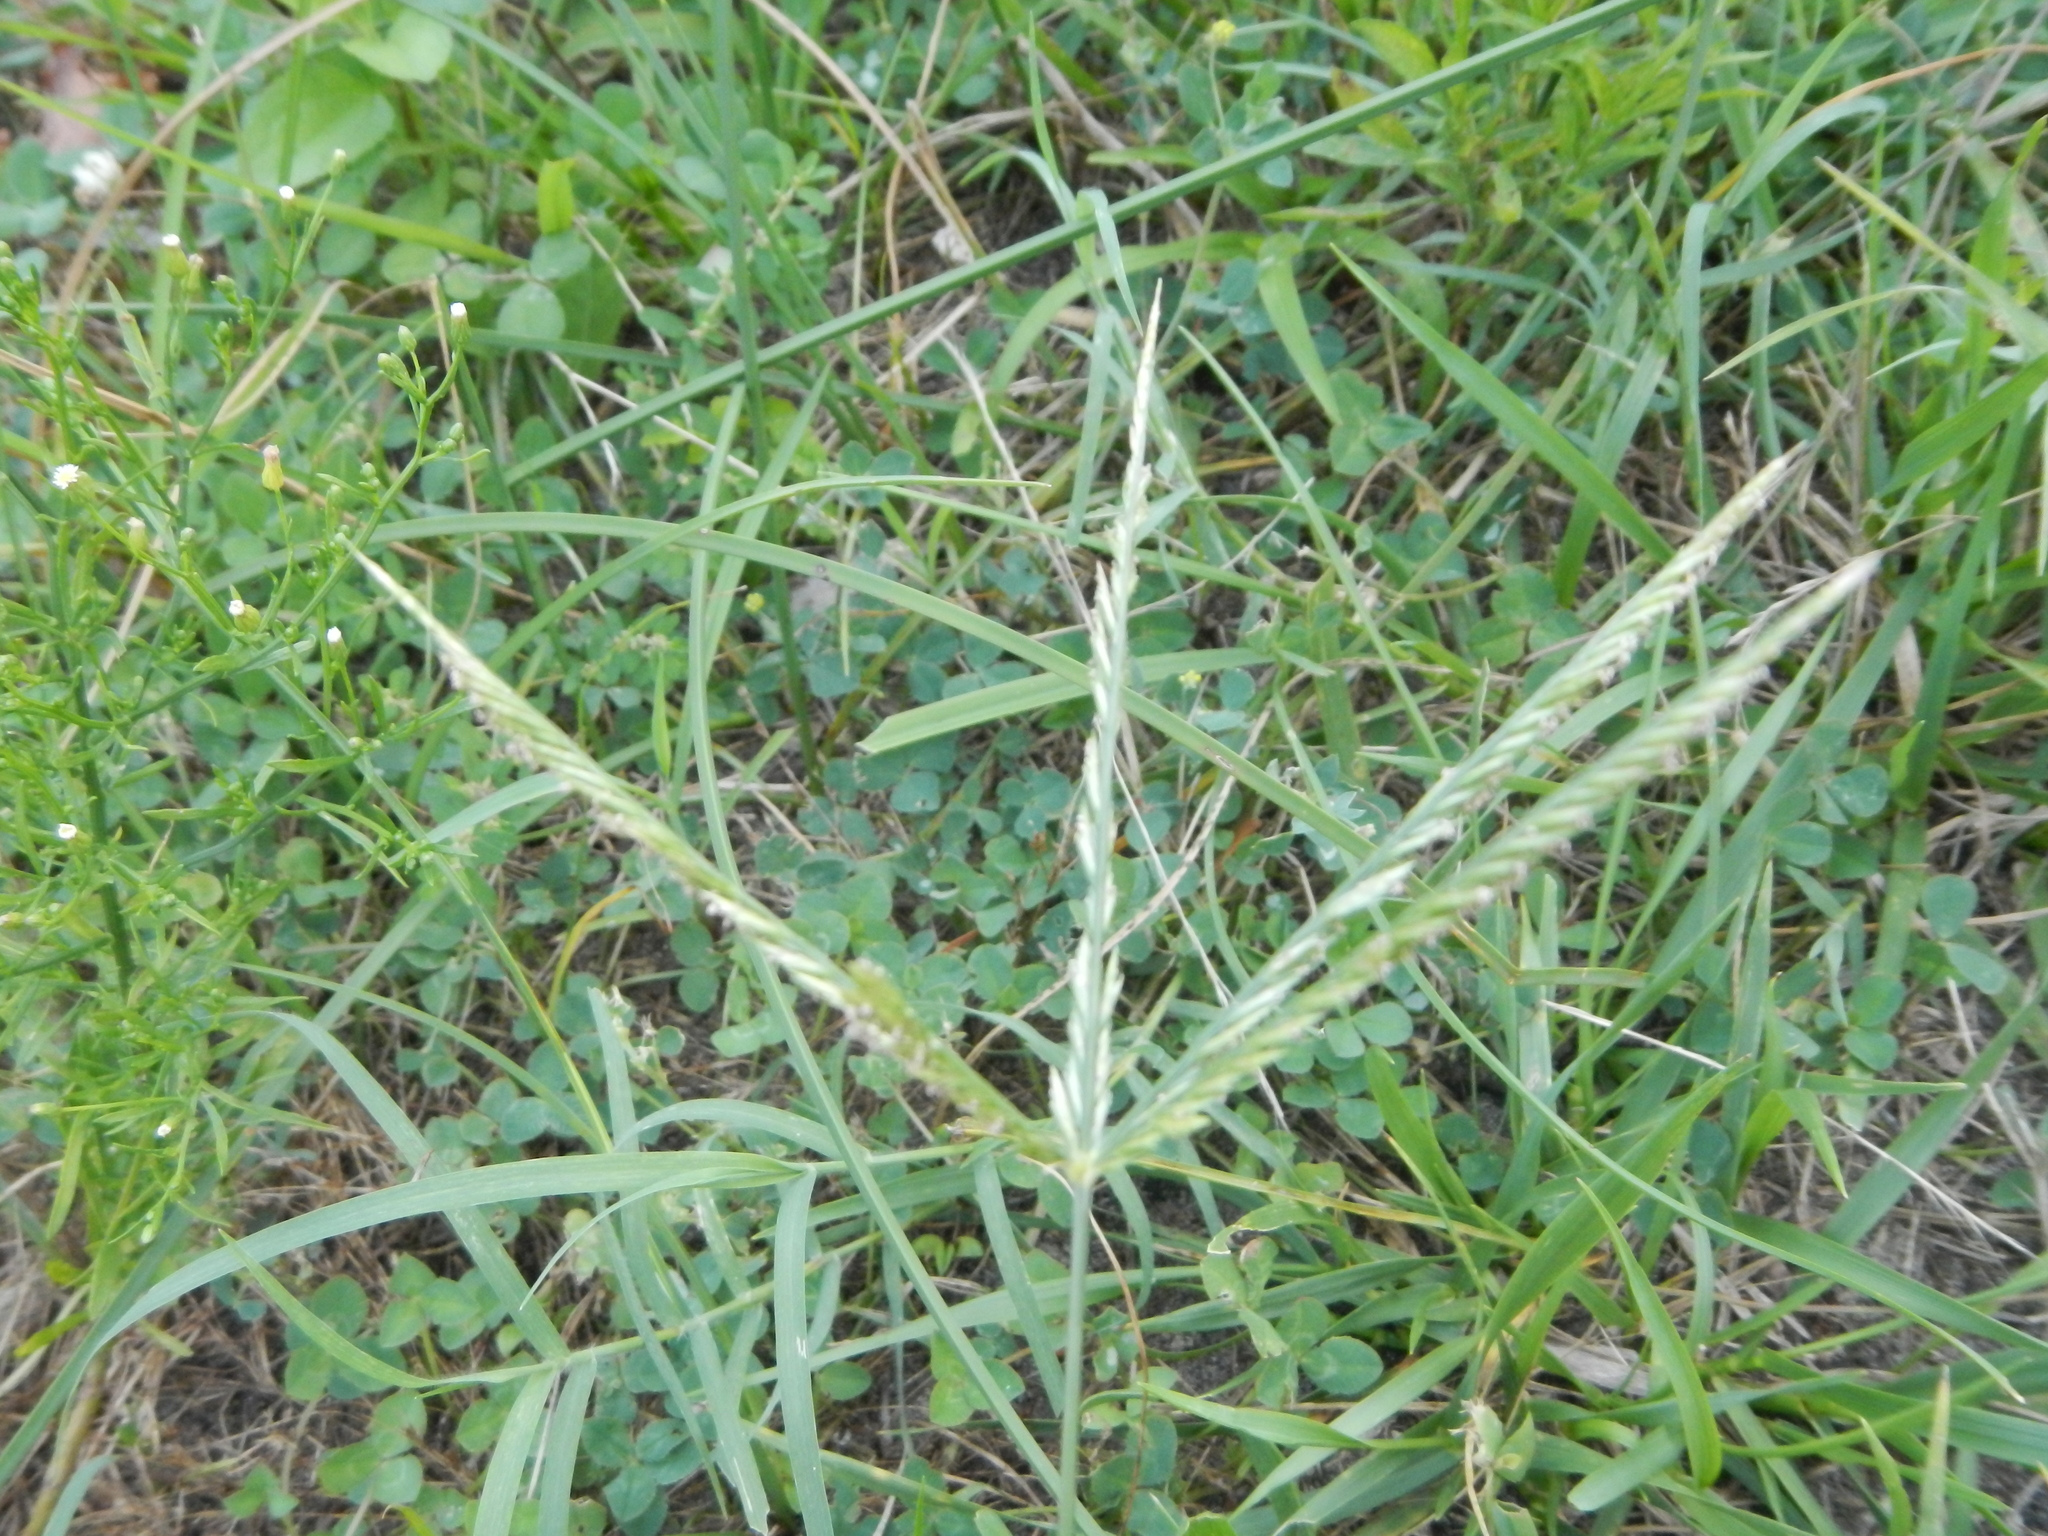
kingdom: Plantae
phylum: Tracheophyta
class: Liliopsida
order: Poales
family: Poaceae
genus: Eleusine
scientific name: Eleusine indica
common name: Yard-grass
